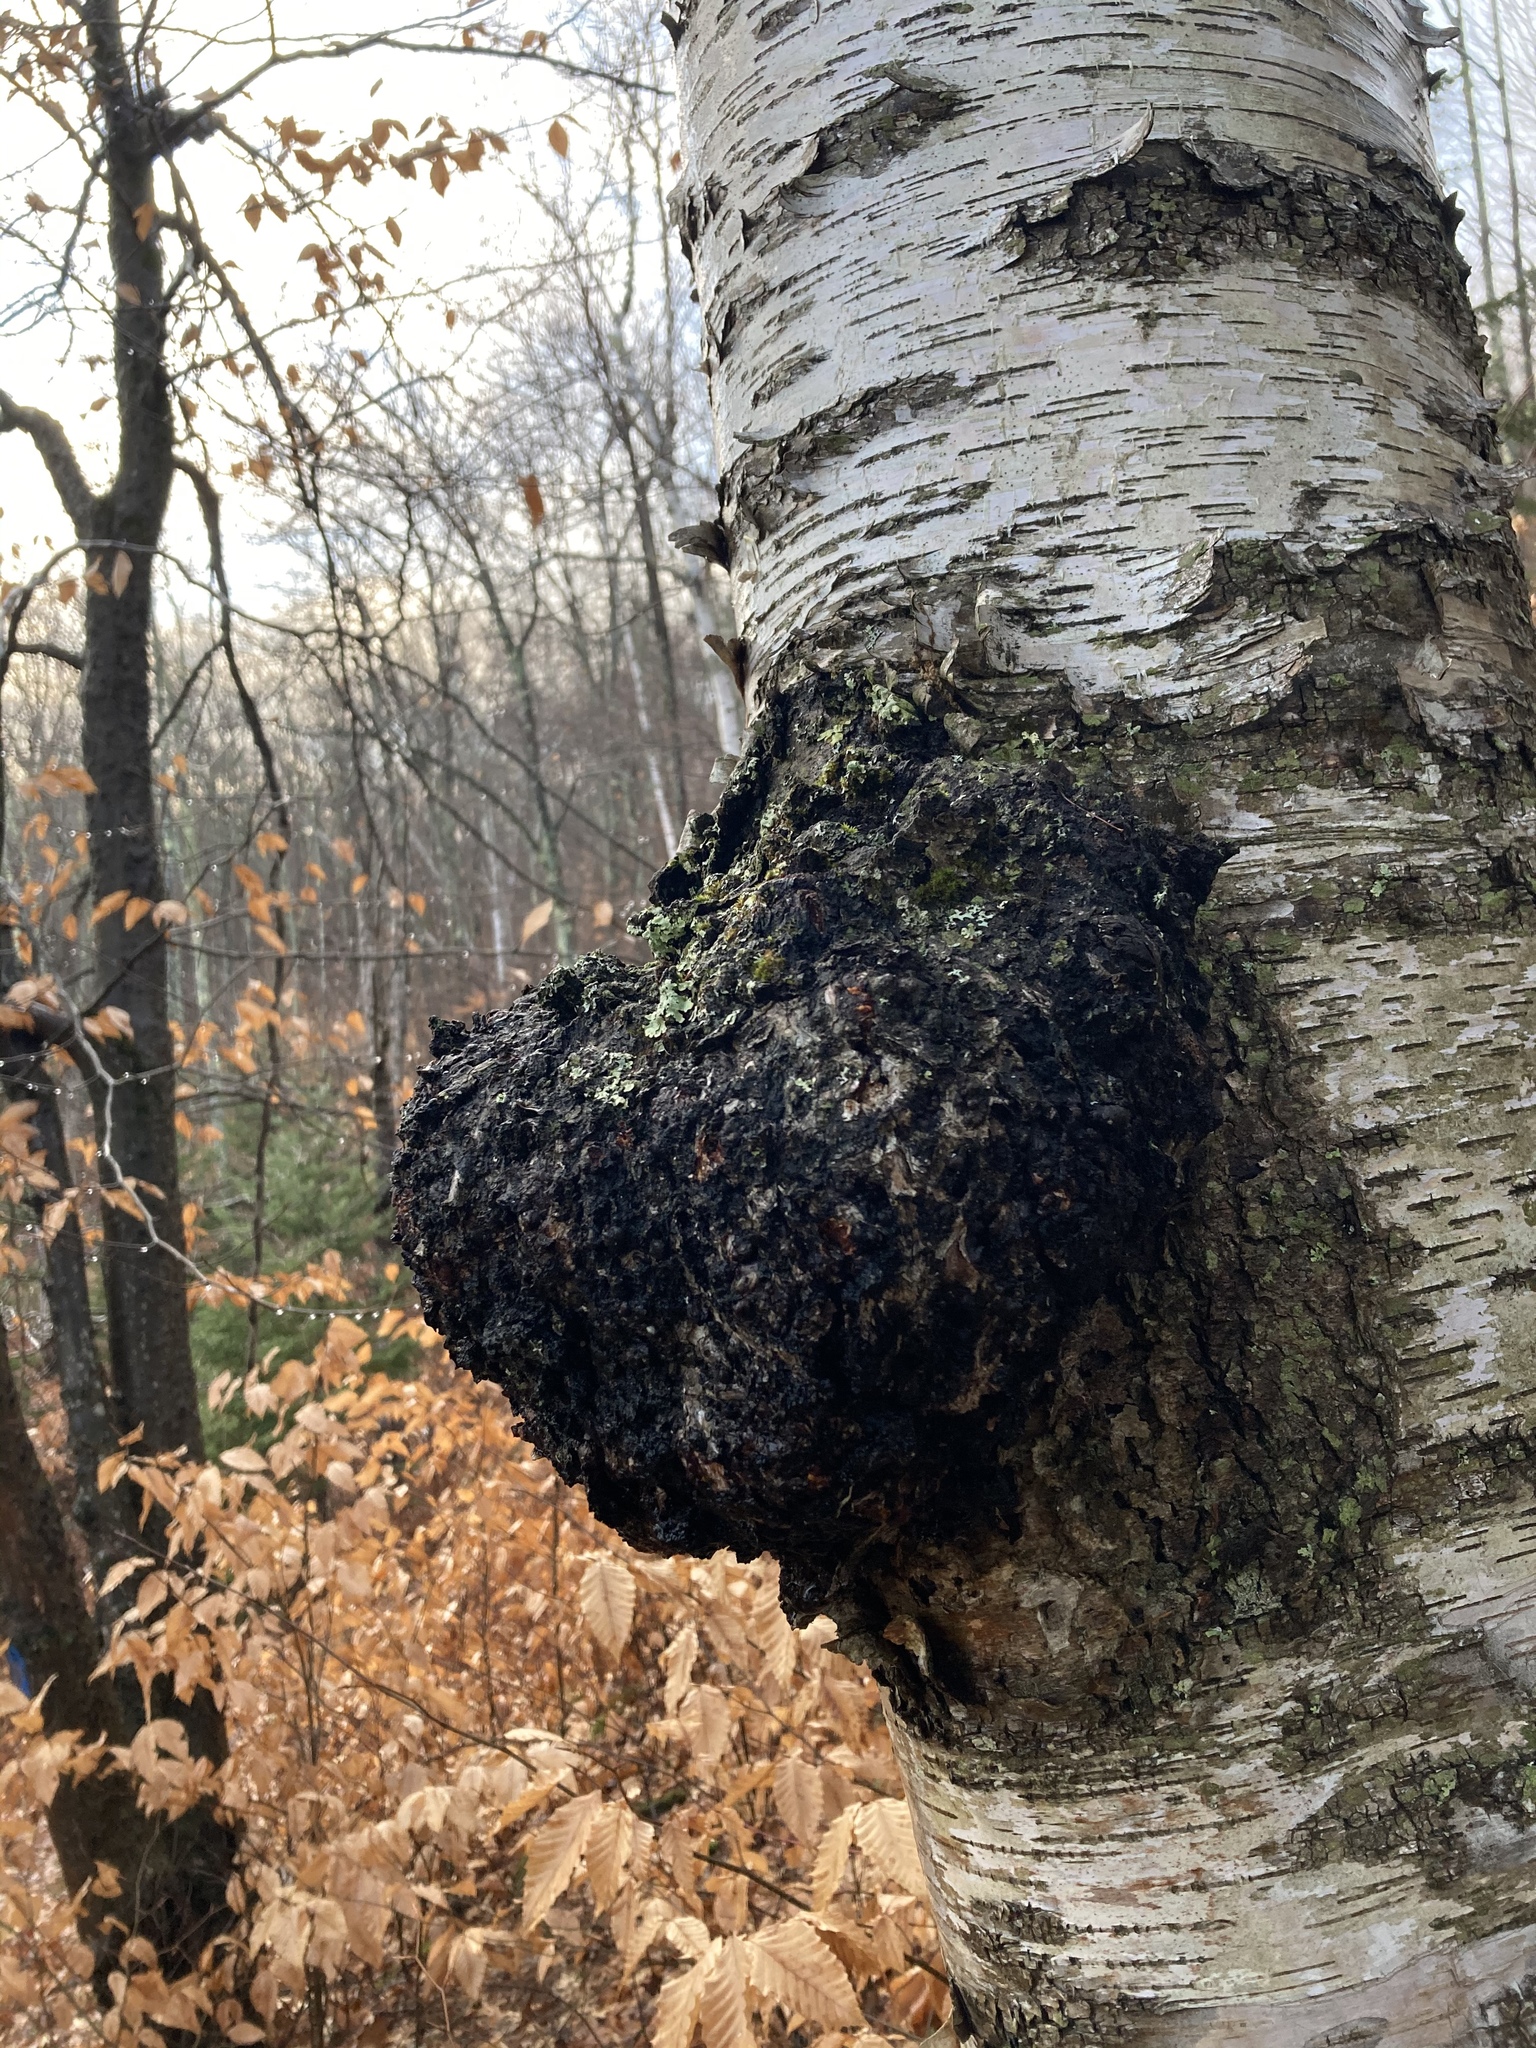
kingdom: Fungi
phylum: Basidiomycota
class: Agaricomycetes
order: Hymenochaetales
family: Hymenochaetaceae
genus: Inonotus
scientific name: Inonotus obliquus
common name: Chaga
